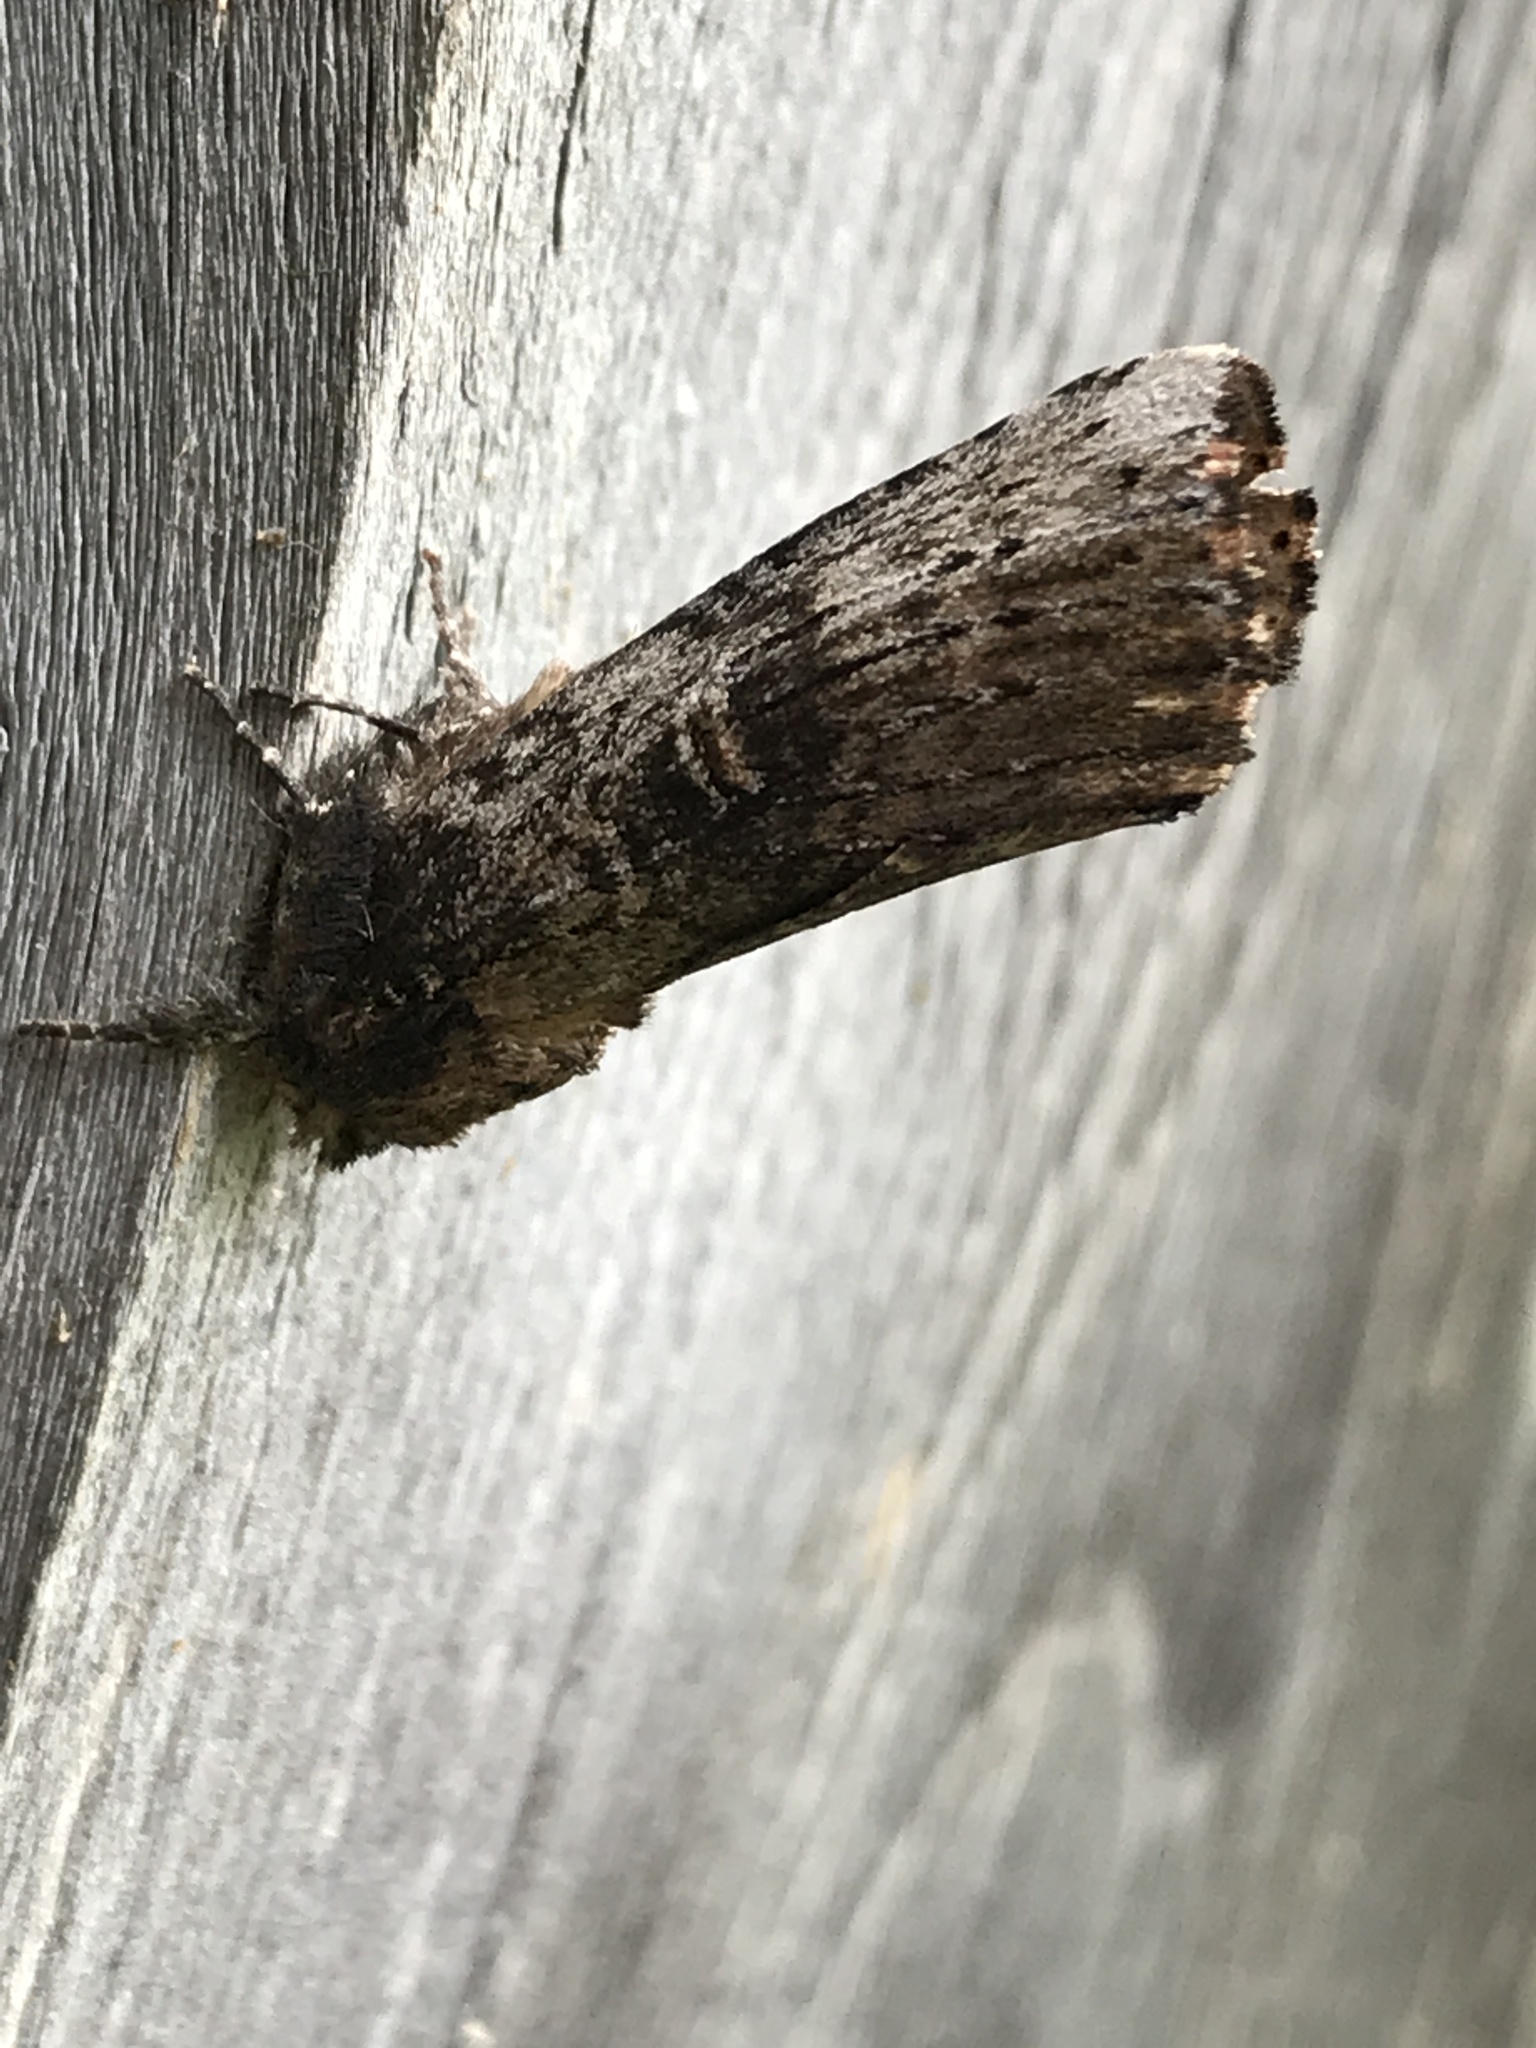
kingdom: Animalia
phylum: Arthropoda
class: Insecta
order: Lepidoptera
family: Notodontidae
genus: Schizura
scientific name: Schizura ipomaeae
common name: Morning-glory prominent
